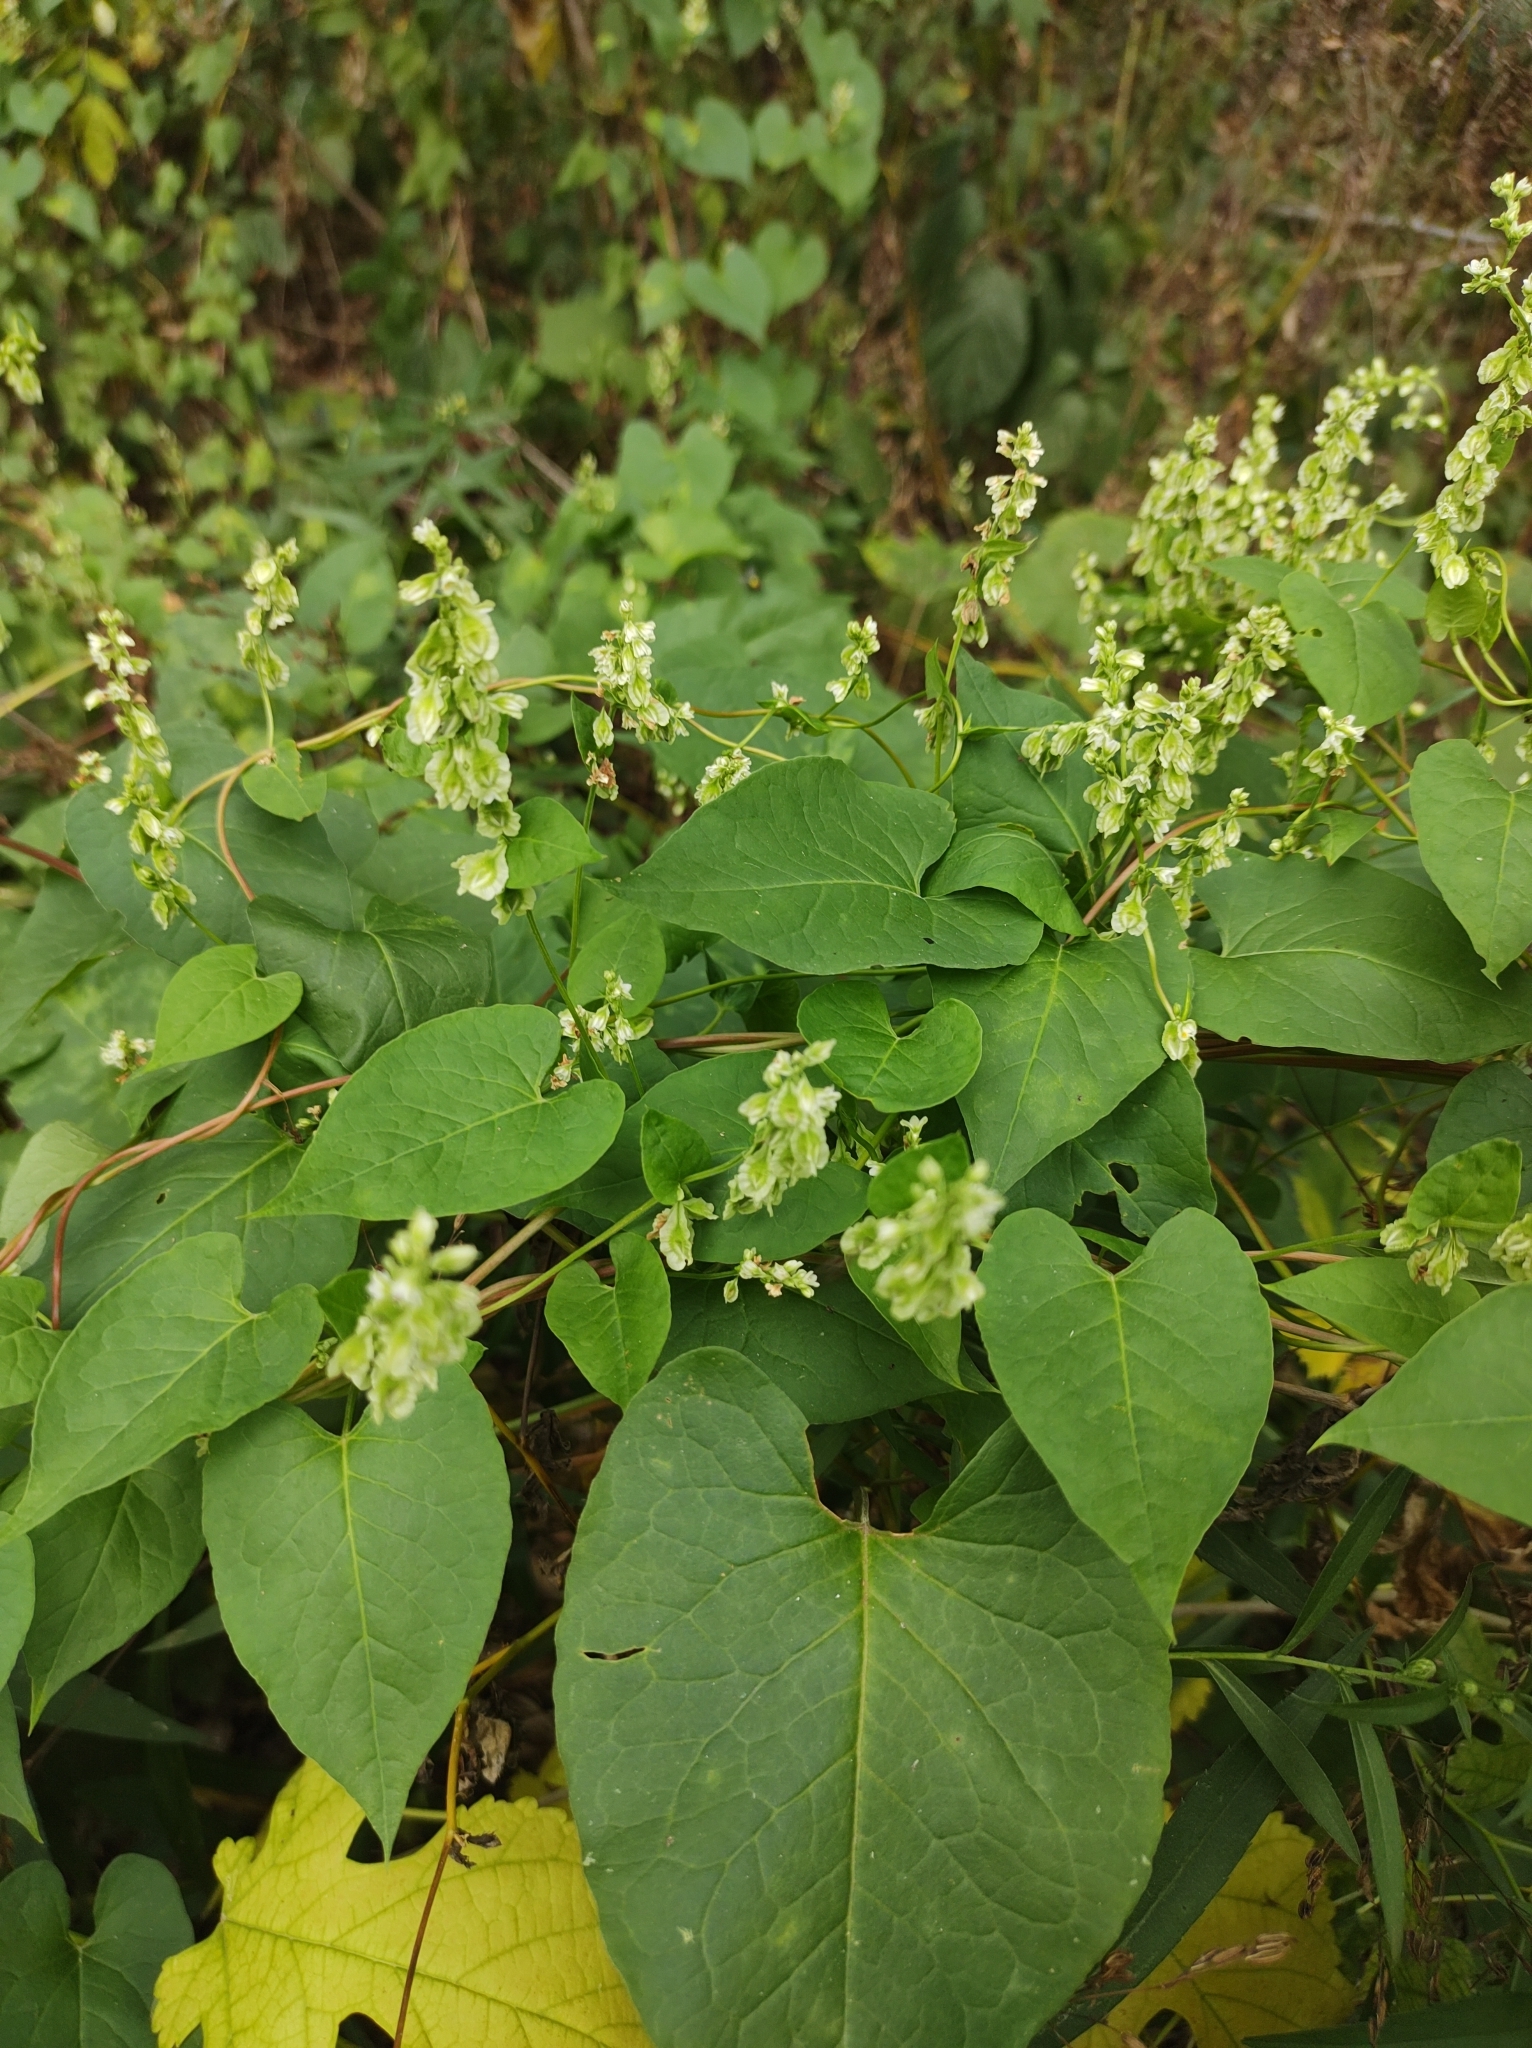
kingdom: Plantae
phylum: Tracheophyta
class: Magnoliopsida
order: Caryophyllales
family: Polygonaceae
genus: Fallopia
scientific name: Fallopia scandens
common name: Climbing false buckwheat
